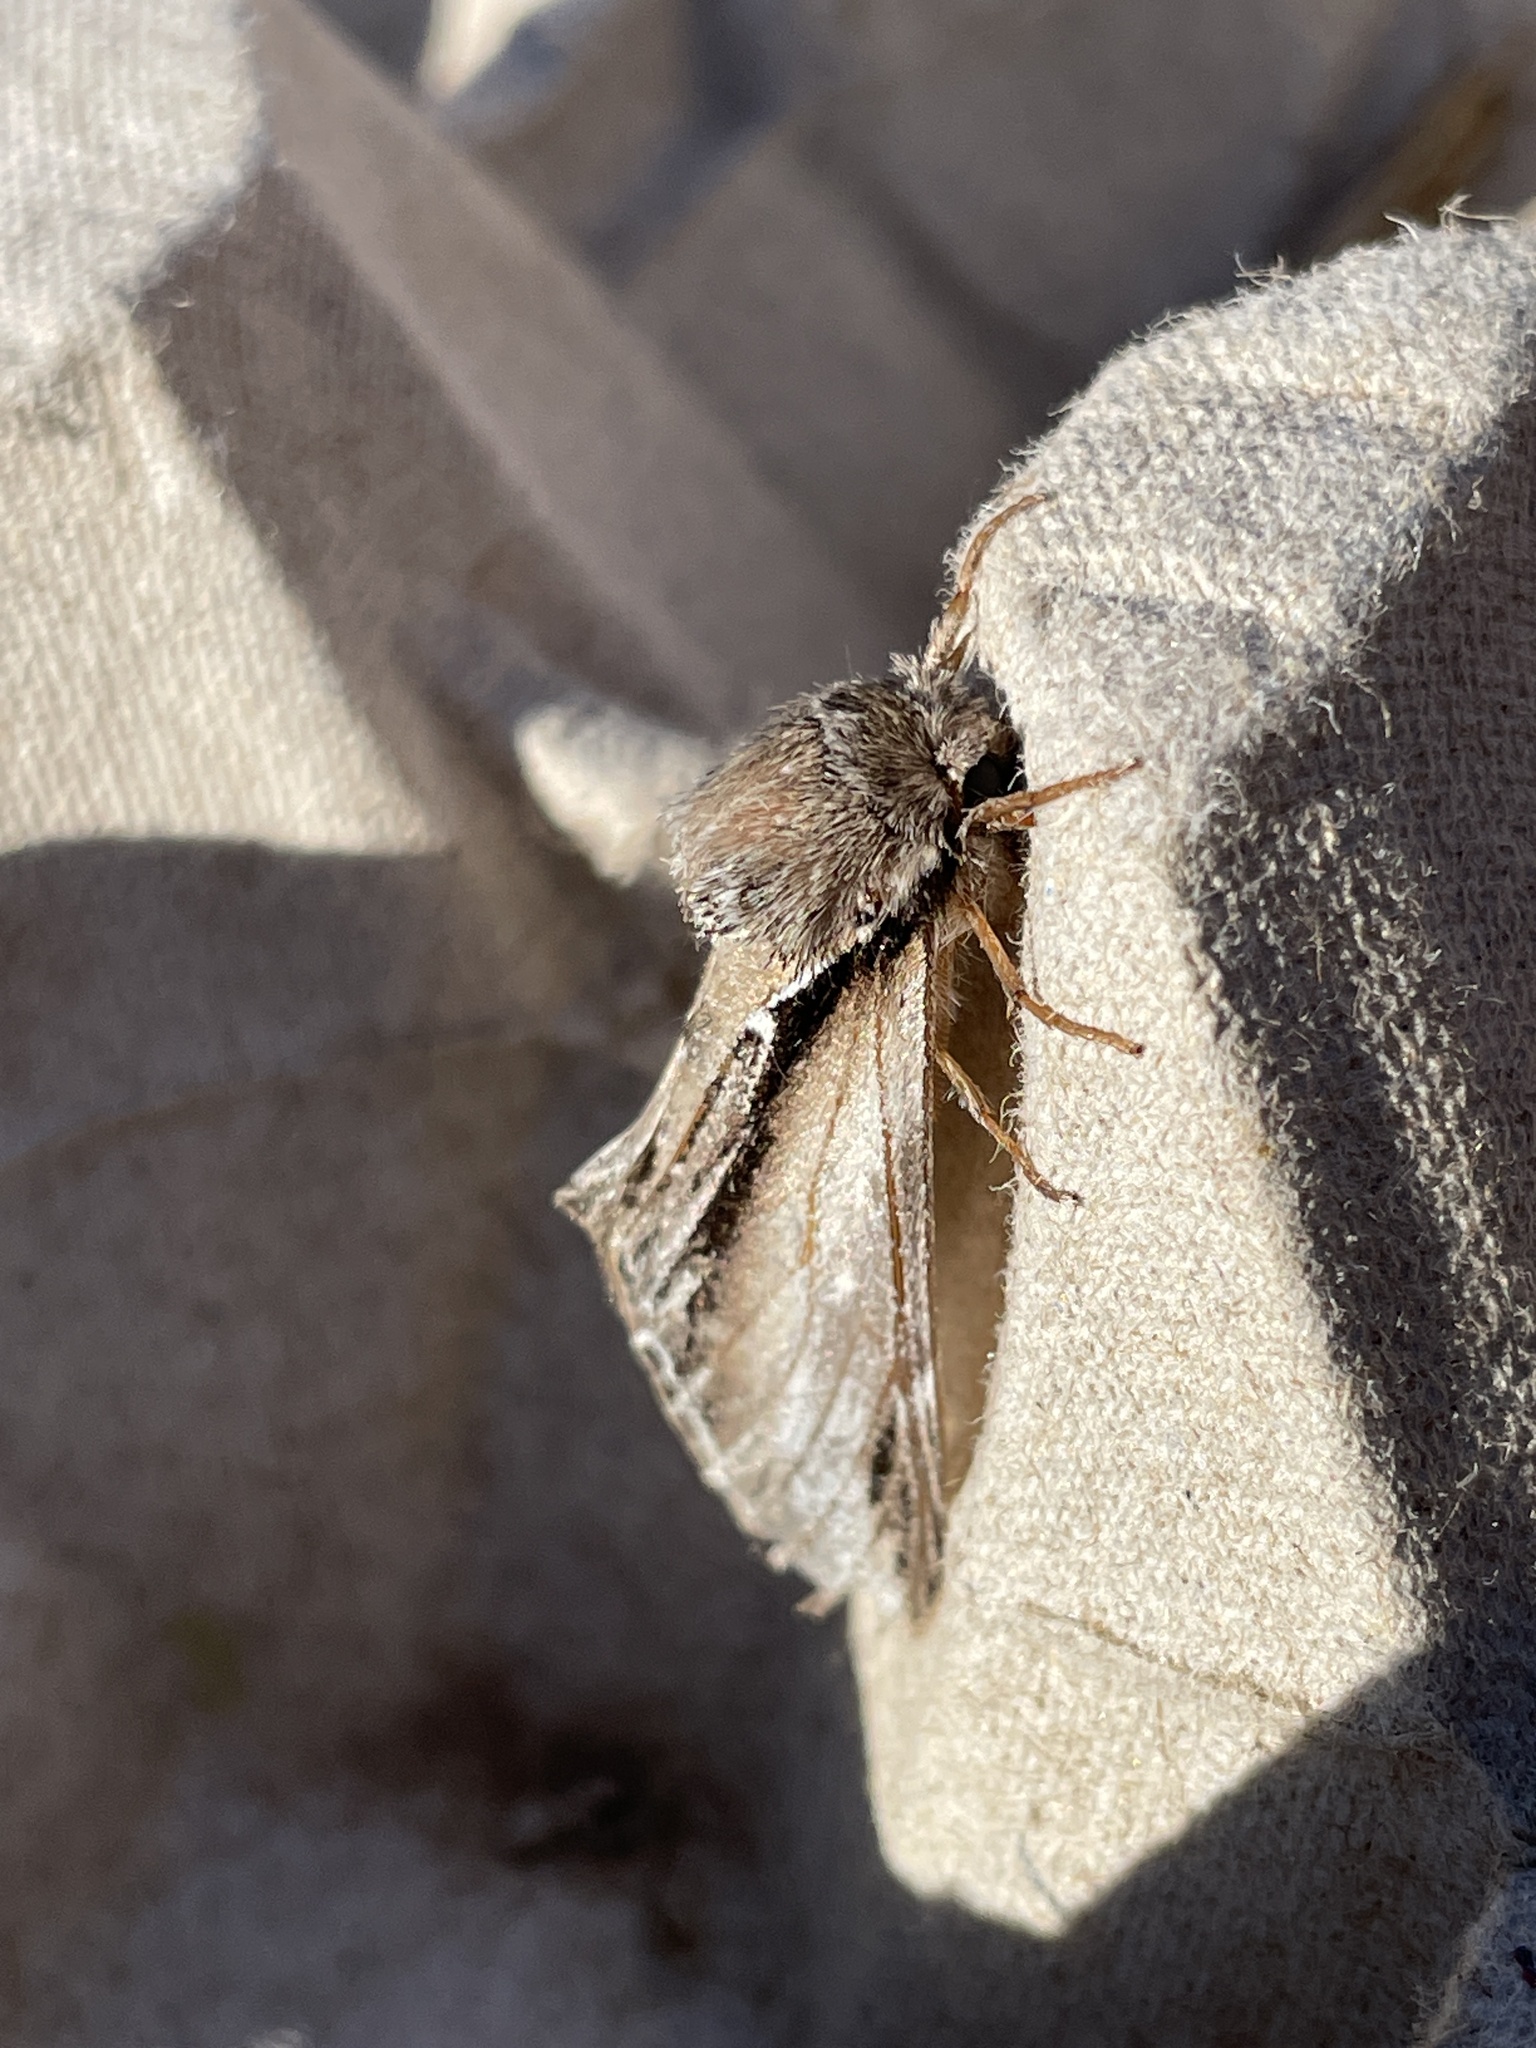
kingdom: Animalia
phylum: Arthropoda
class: Insecta
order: Lepidoptera
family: Notodontidae
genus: Pheosia
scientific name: Pheosia tremula
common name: Swallow prominent
